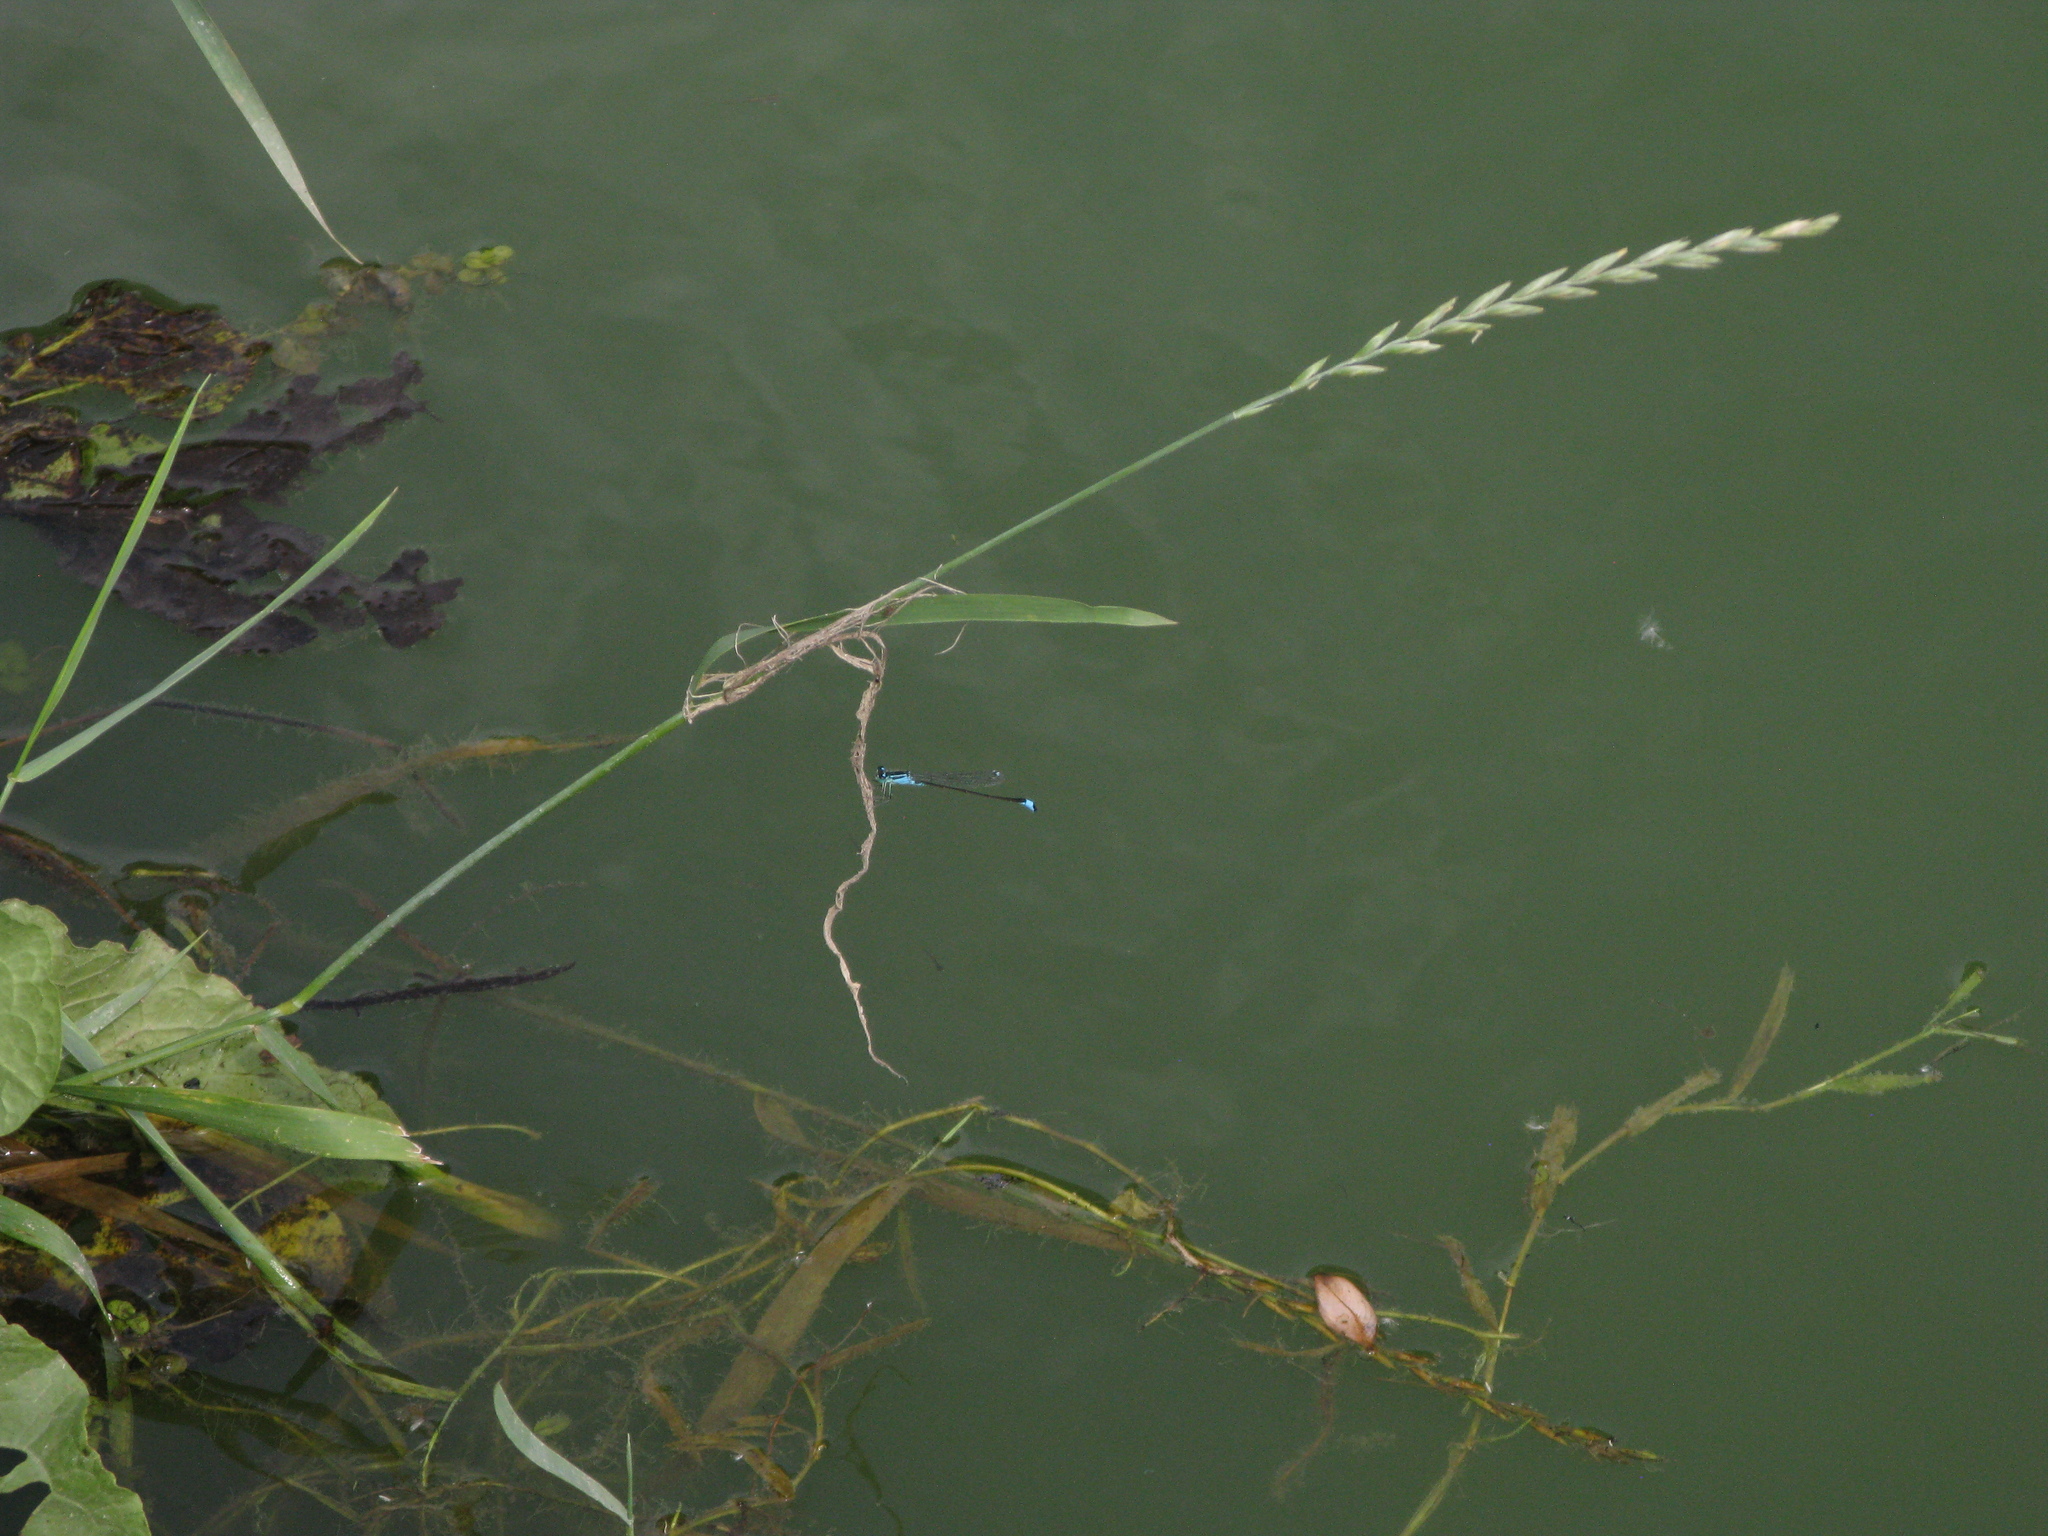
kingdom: Animalia
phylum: Arthropoda
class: Insecta
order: Odonata
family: Coenagrionidae
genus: Ischnura
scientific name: Ischnura elegans
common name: Blue-tailed damselfly
